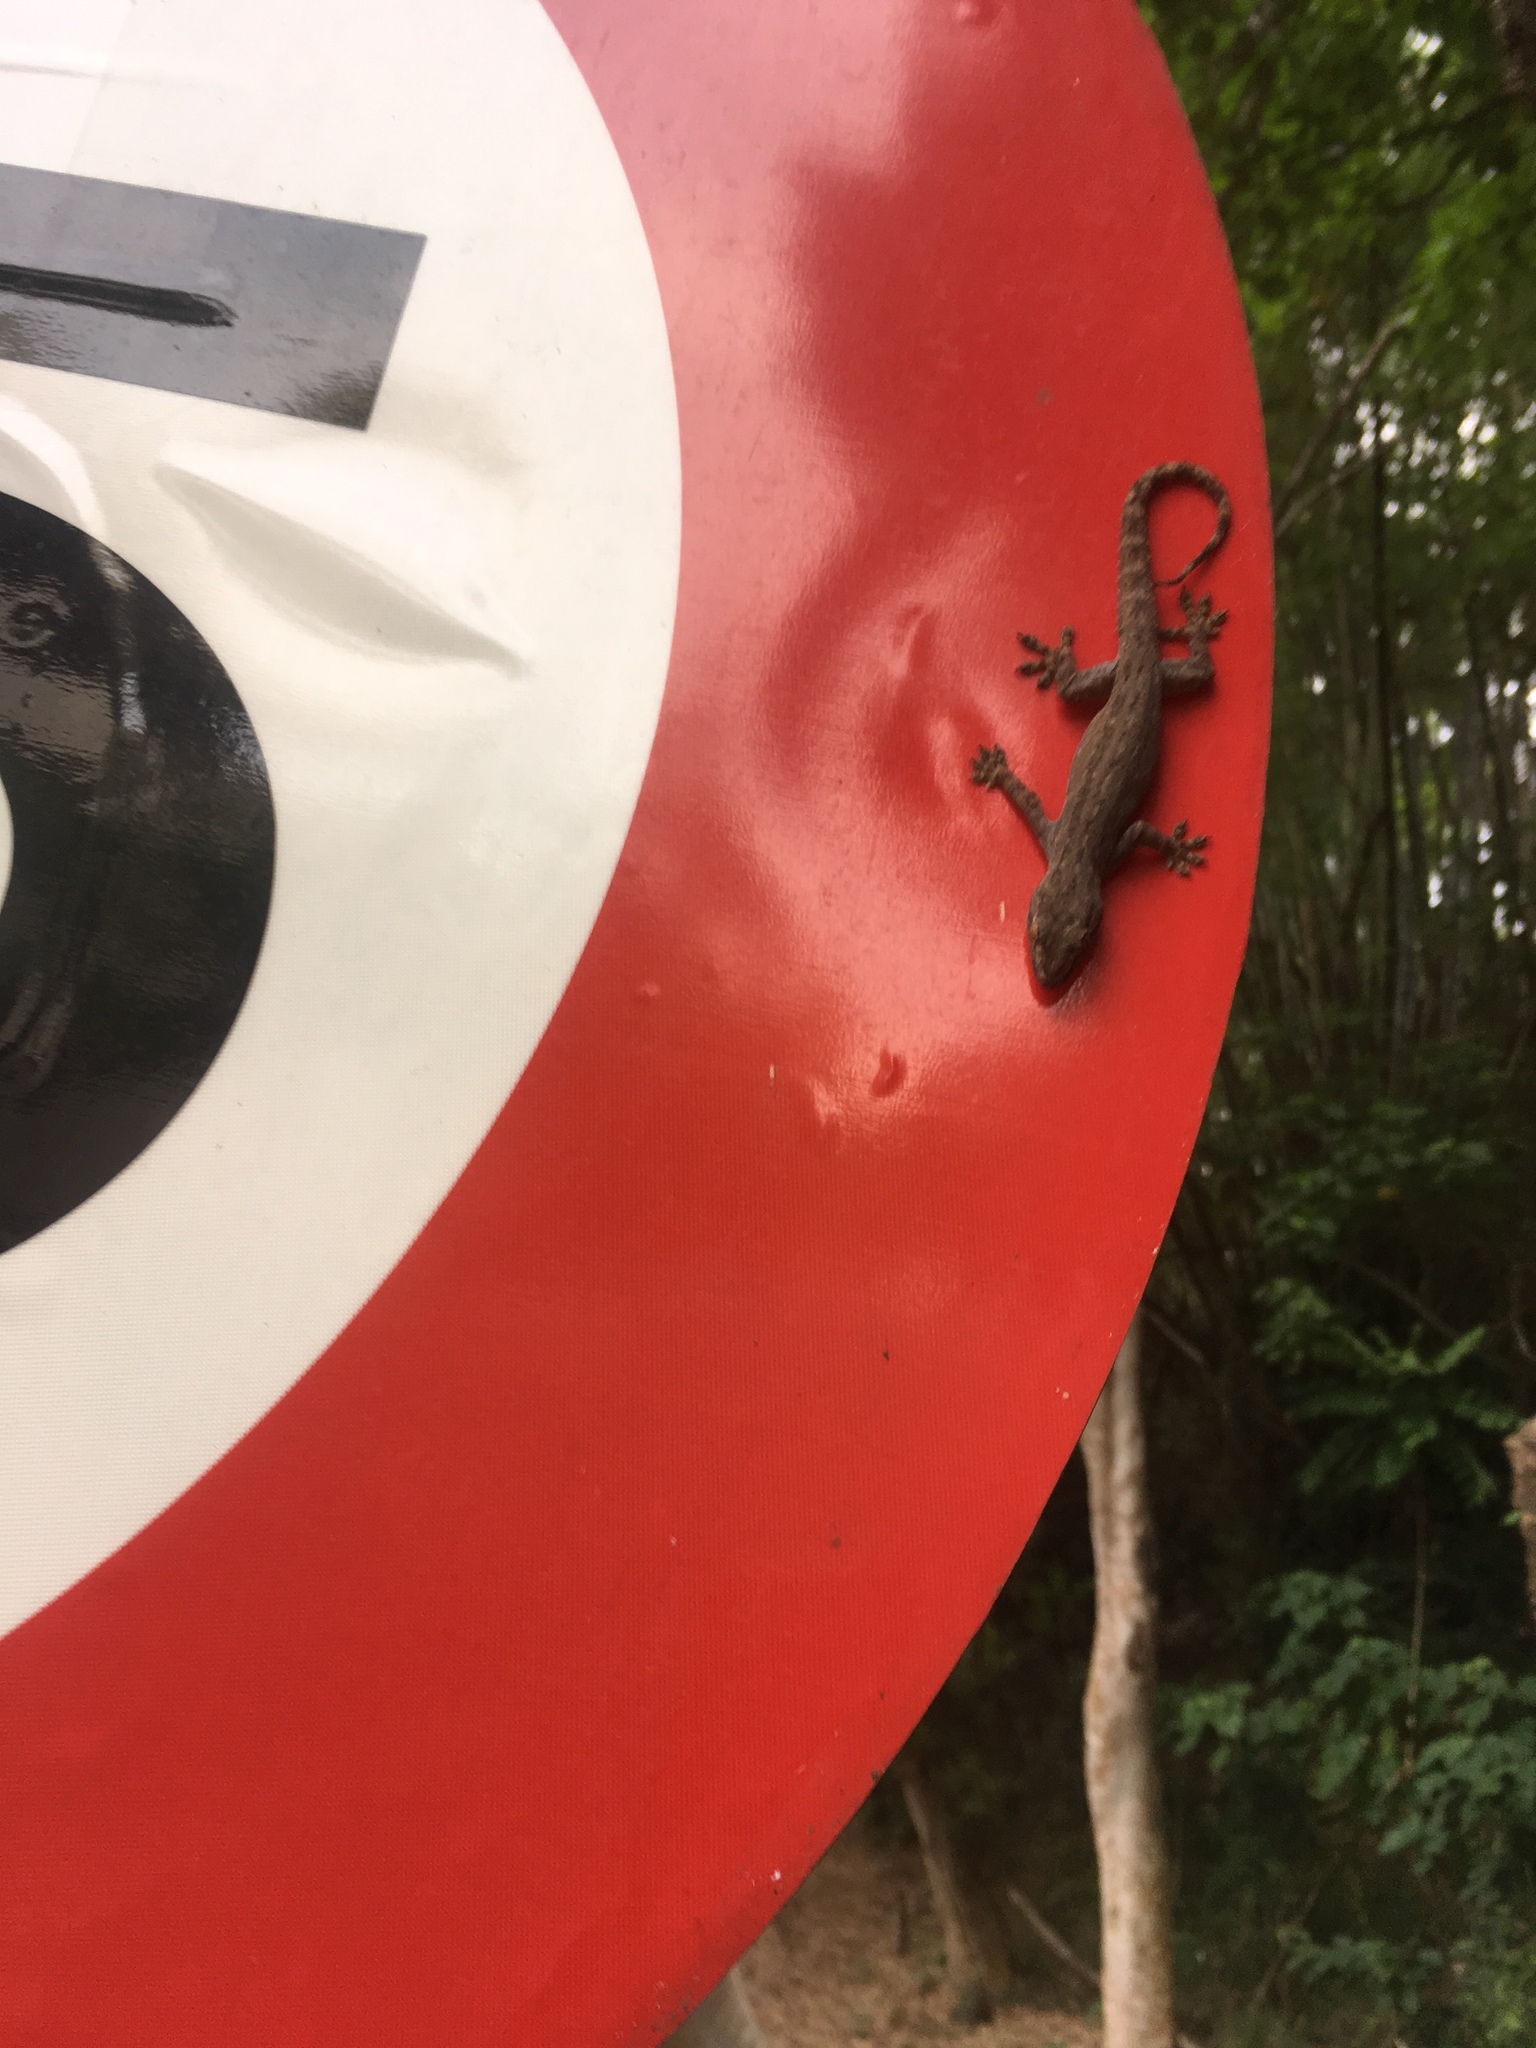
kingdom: Animalia
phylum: Chordata
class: Squamata
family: Gekkonidae
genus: Hemidactylus
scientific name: Hemidactylus frenatus
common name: Common house gecko
